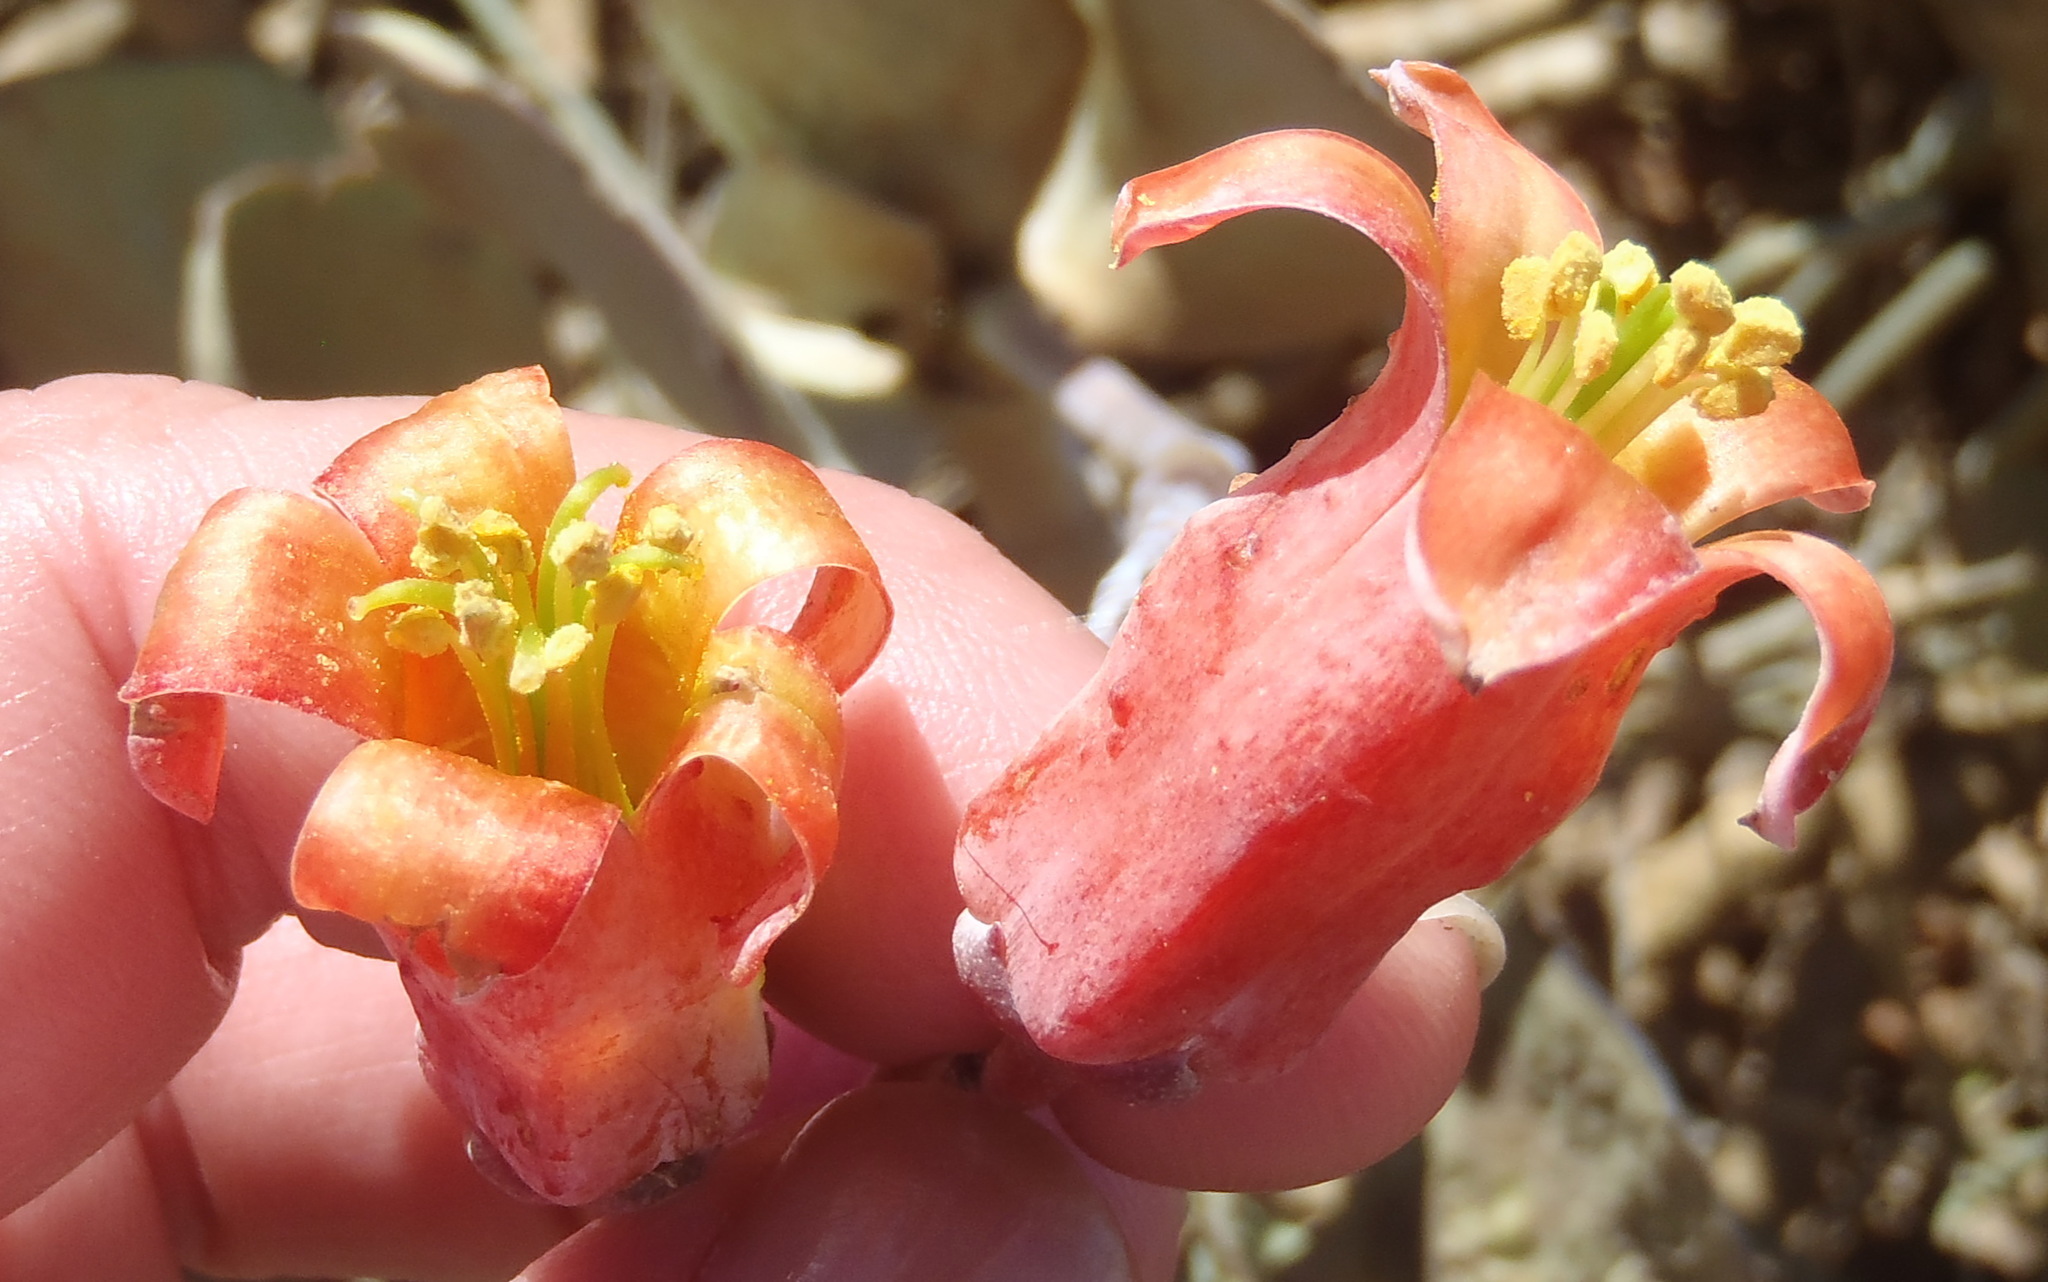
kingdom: Plantae
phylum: Tracheophyta
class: Magnoliopsida
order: Saxifragales
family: Crassulaceae
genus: Cotyledon
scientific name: Cotyledon orbiculata
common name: Pig's ear
